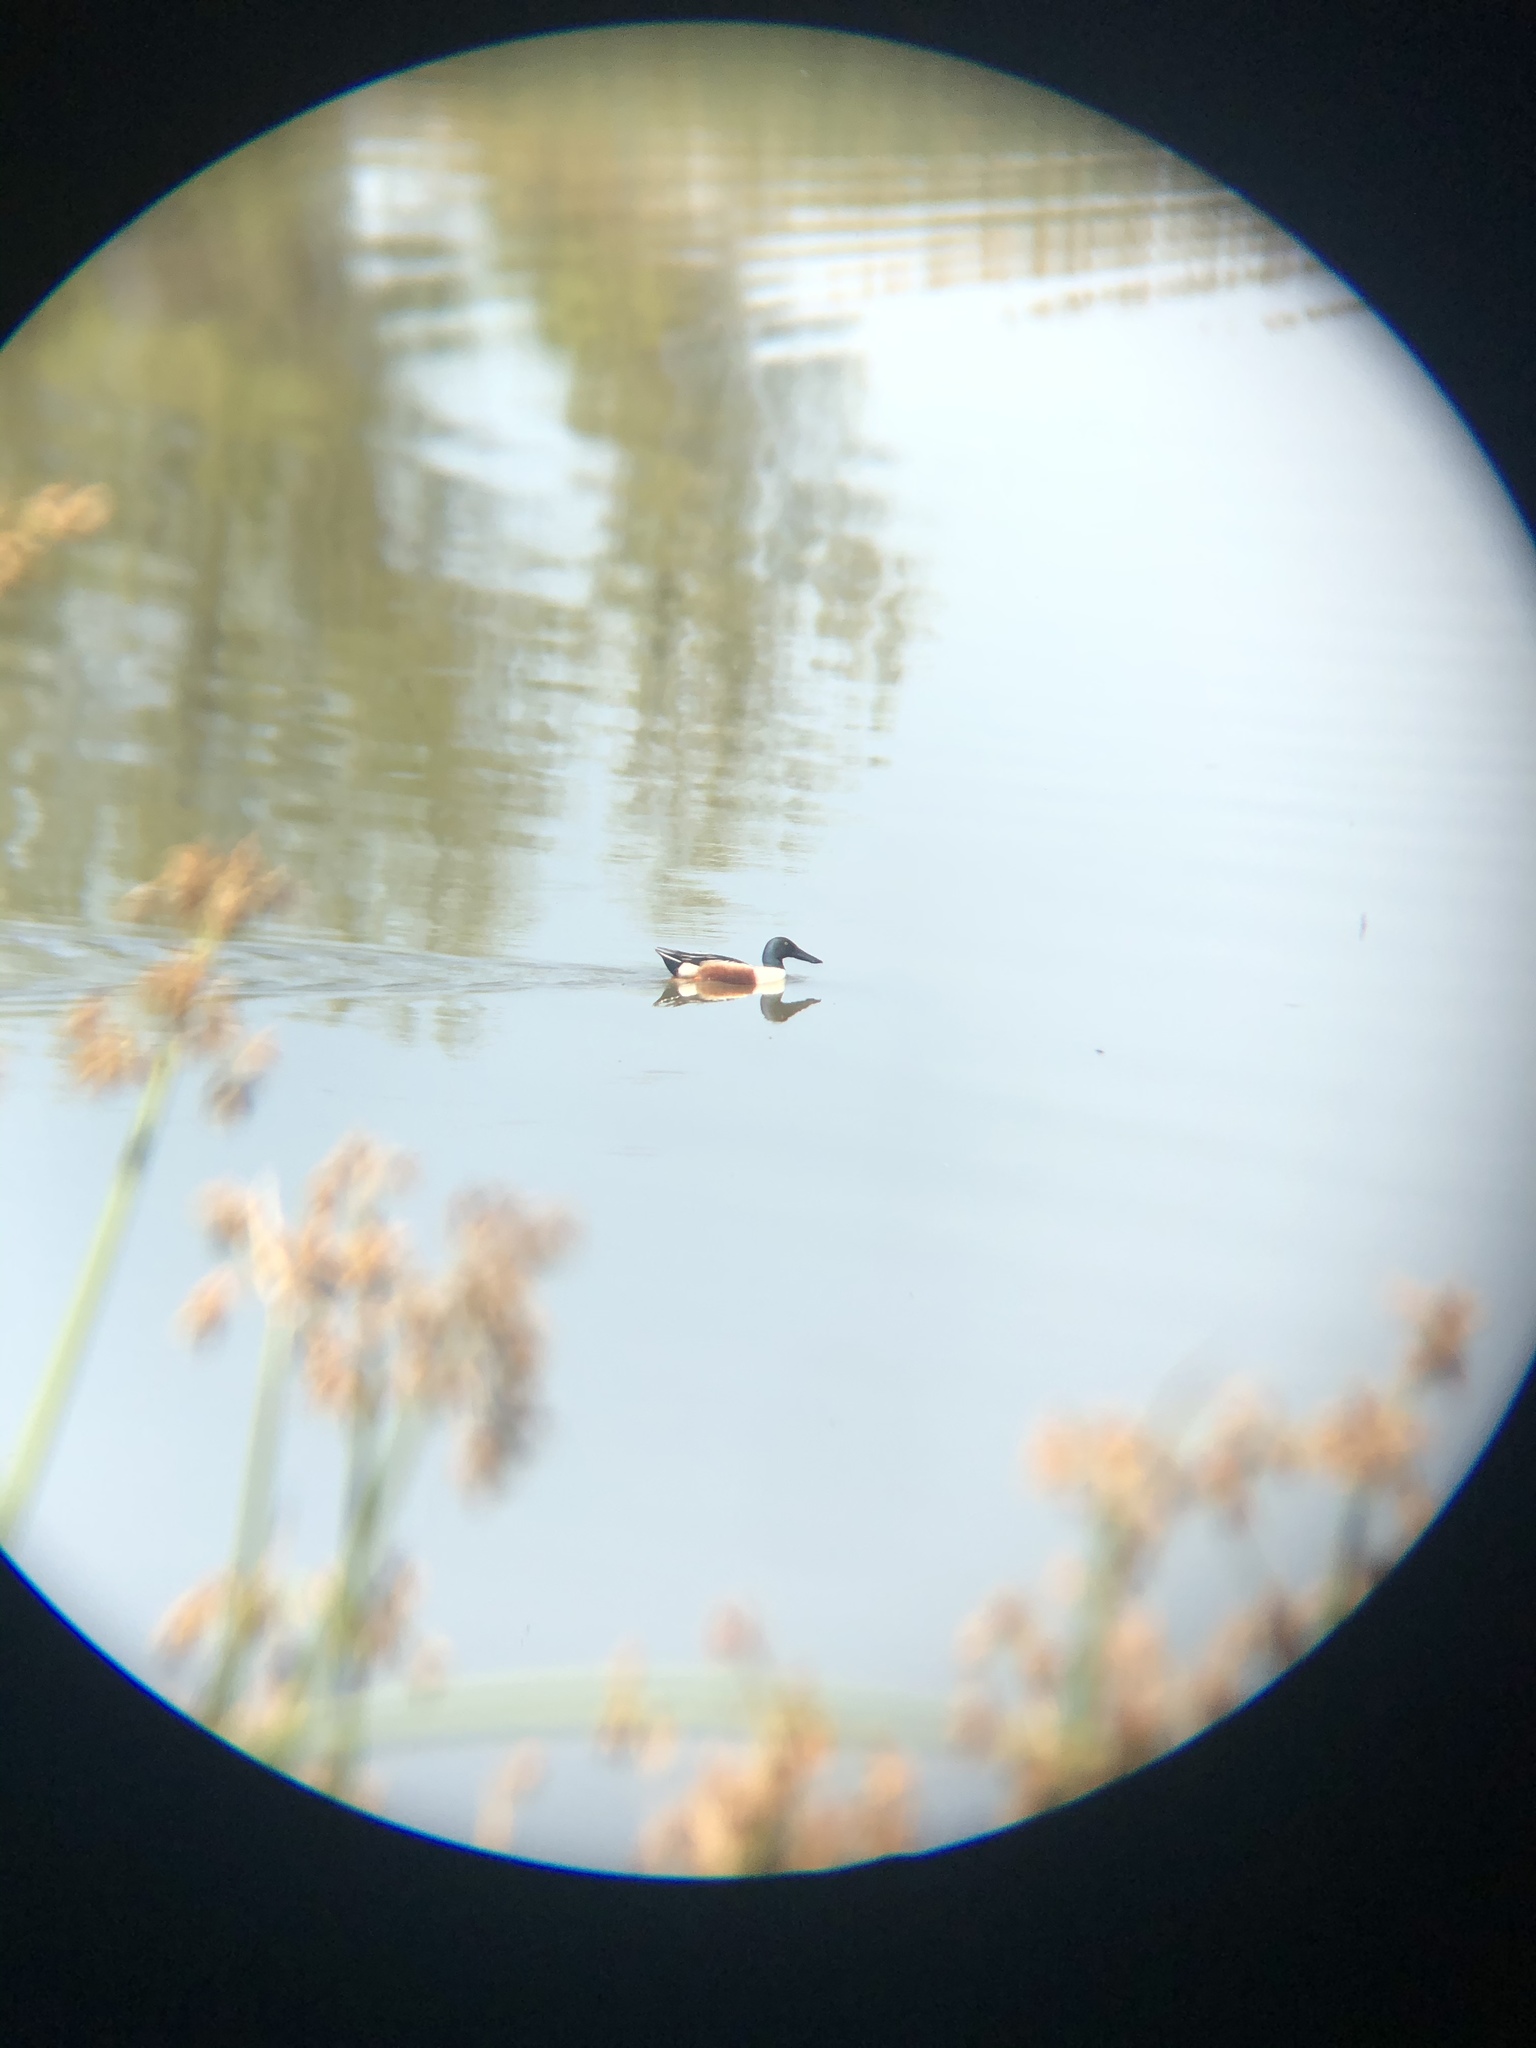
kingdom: Animalia
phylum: Chordata
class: Aves
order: Anseriformes
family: Anatidae
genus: Spatula
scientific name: Spatula clypeata
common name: Northern shoveler
